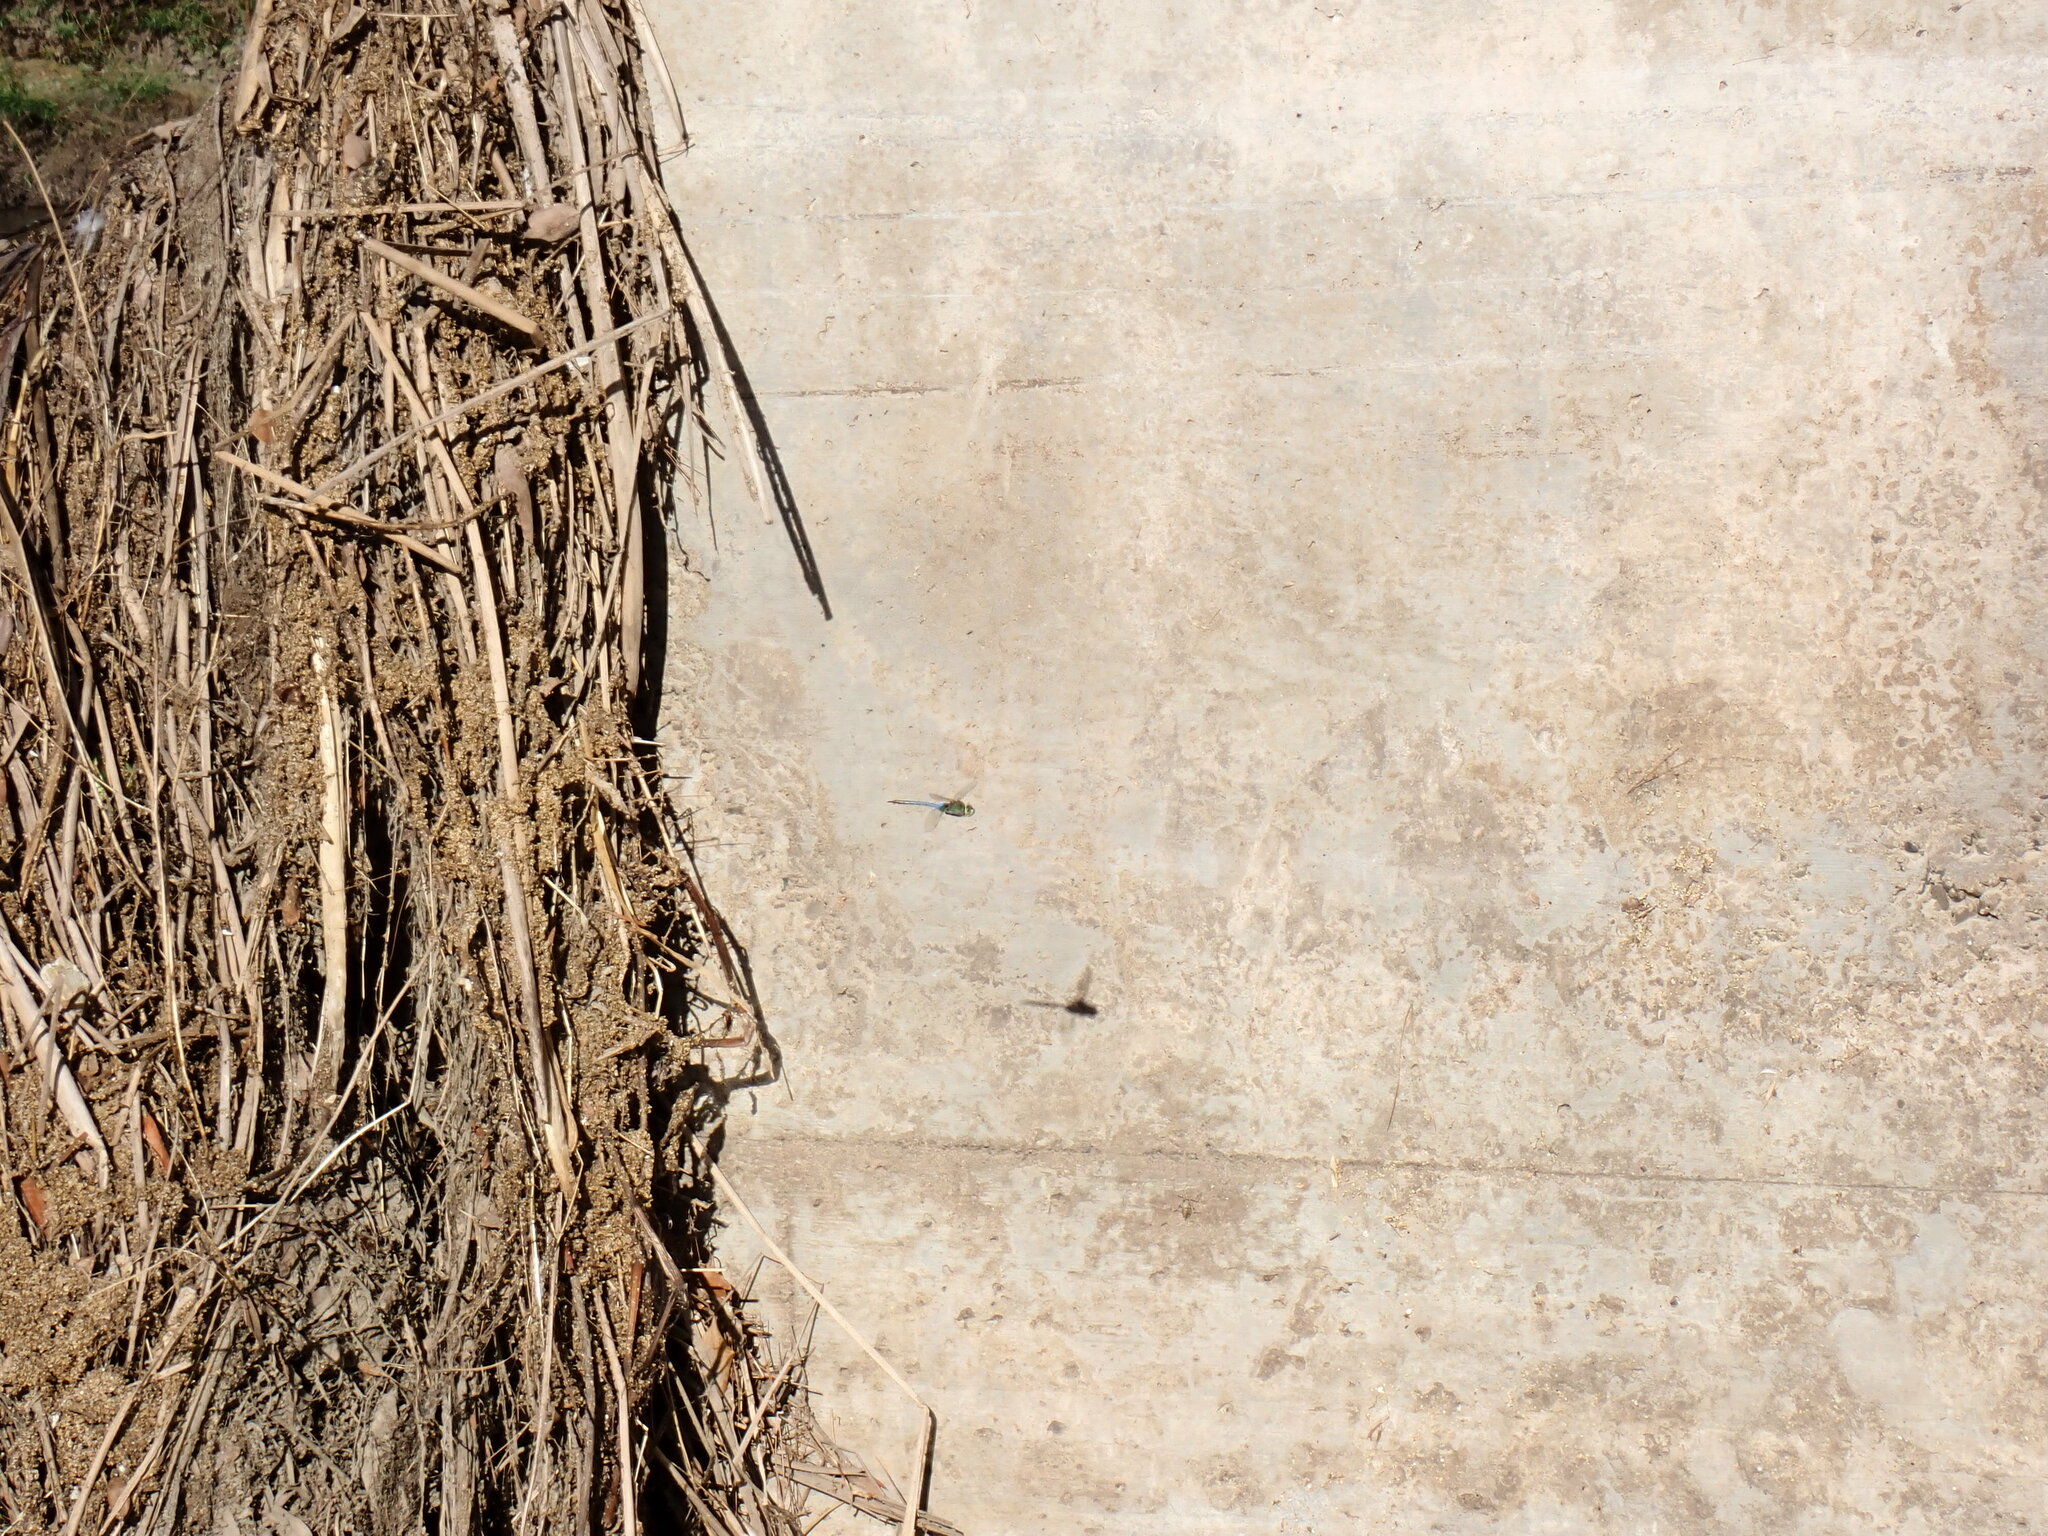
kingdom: Animalia
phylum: Arthropoda
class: Insecta
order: Odonata
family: Aeshnidae
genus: Anax
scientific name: Anax junius
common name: Common green darner
